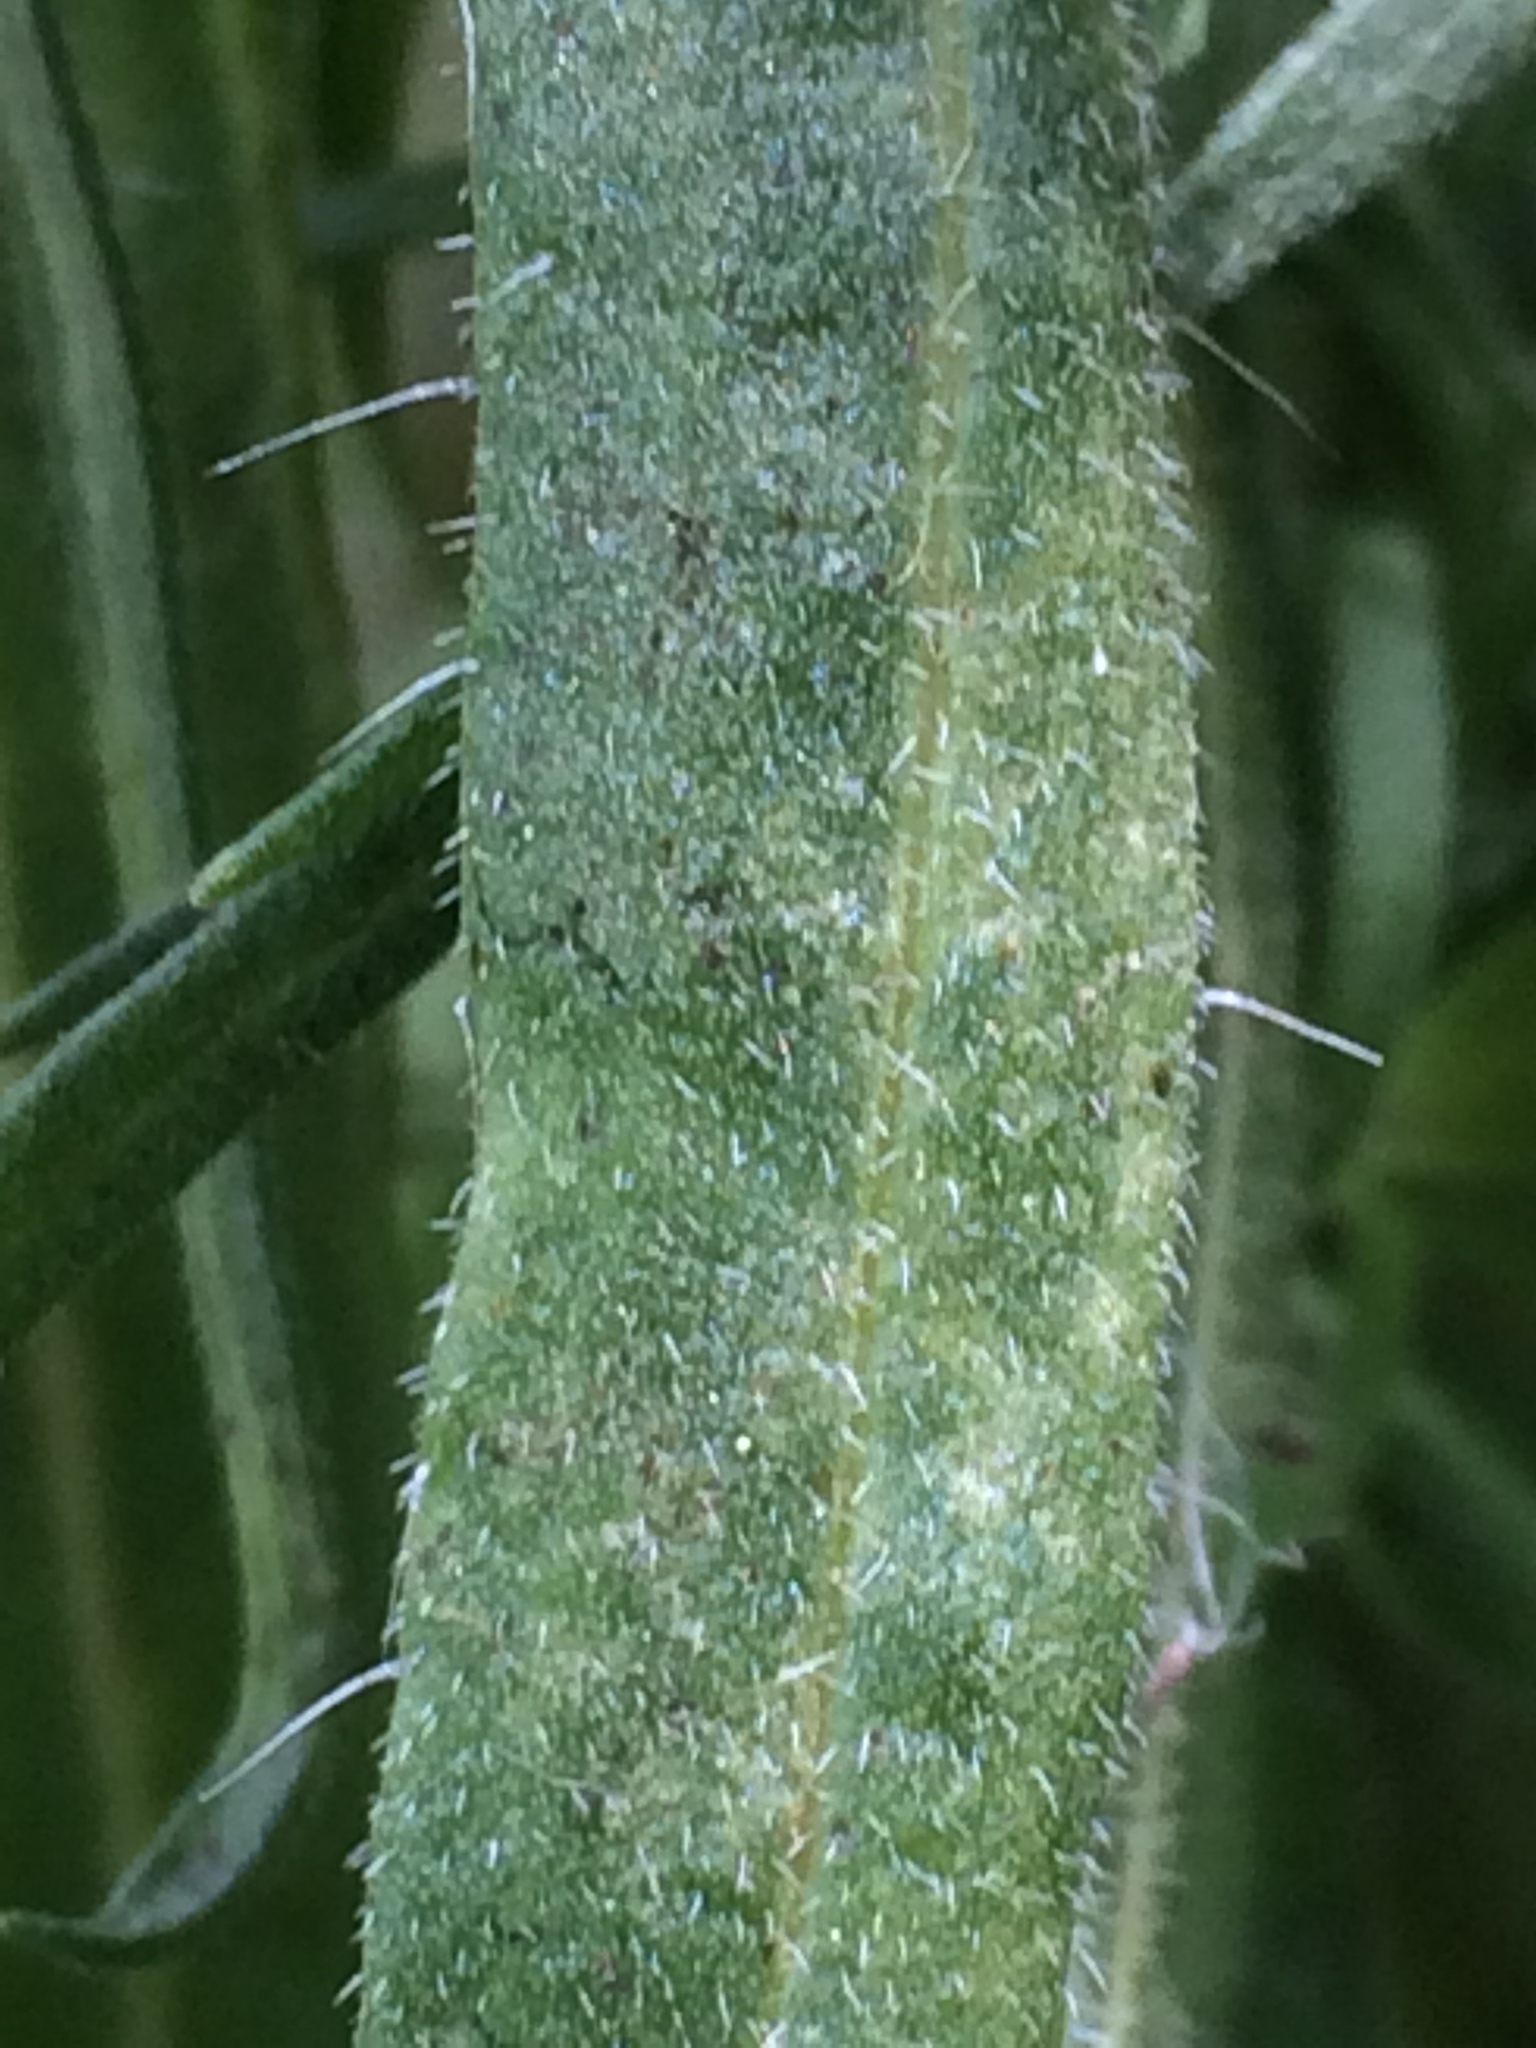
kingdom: Plantae
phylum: Tracheophyta
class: Magnoliopsida
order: Asterales
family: Asteraceae
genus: Madia
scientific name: Madia gracilis
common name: Grassy tarweed
